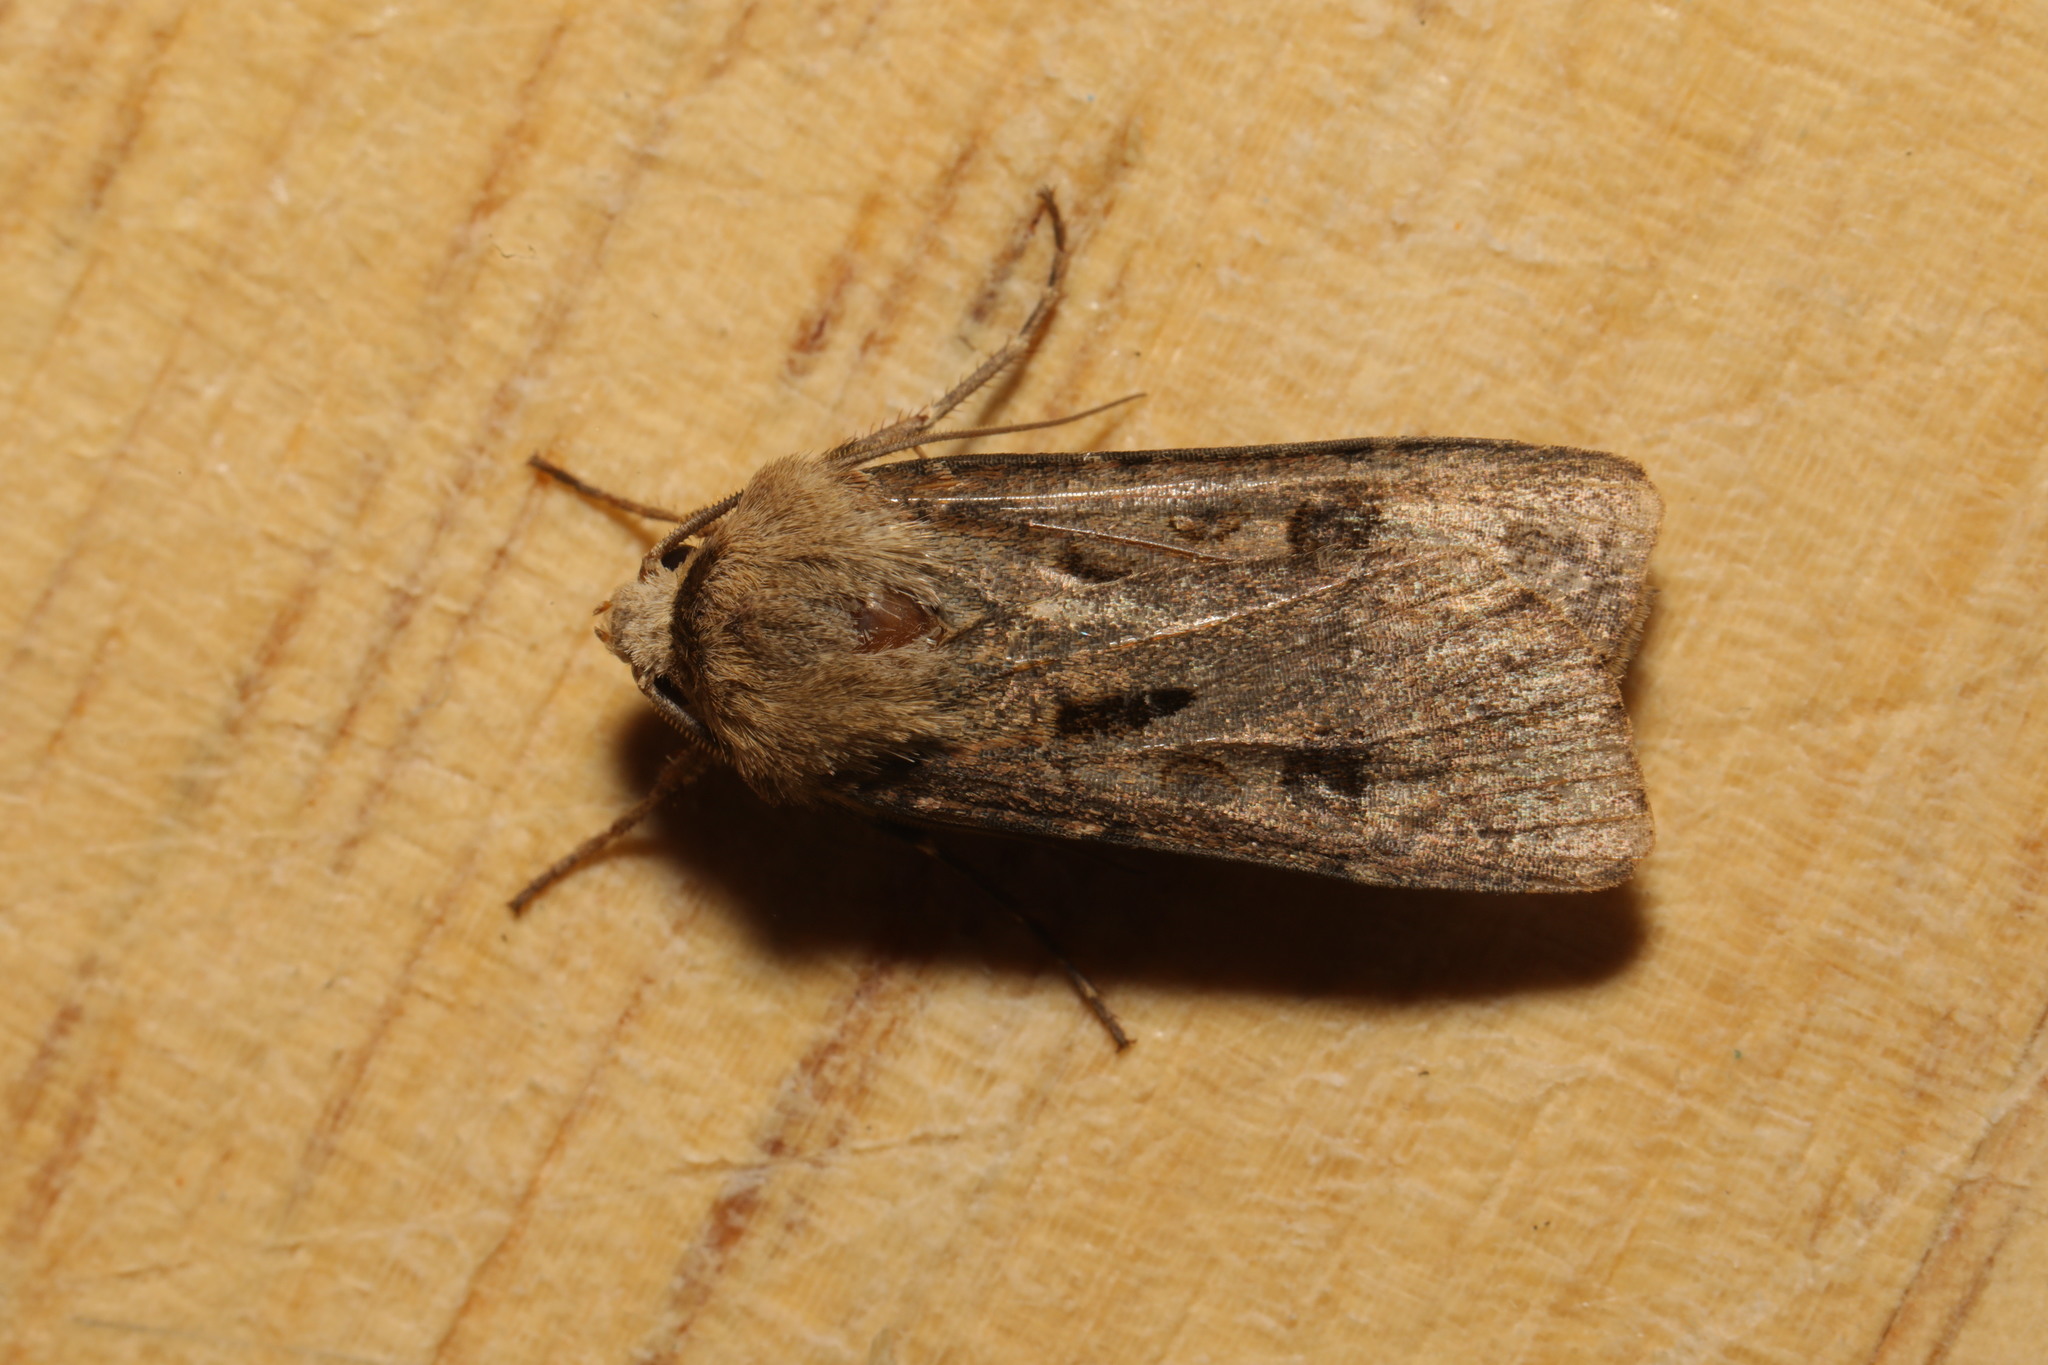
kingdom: Animalia
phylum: Arthropoda
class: Insecta
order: Lepidoptera
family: Noctuidae
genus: Agrotis
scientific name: Agrotis exclamationis
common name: Heart and dart
